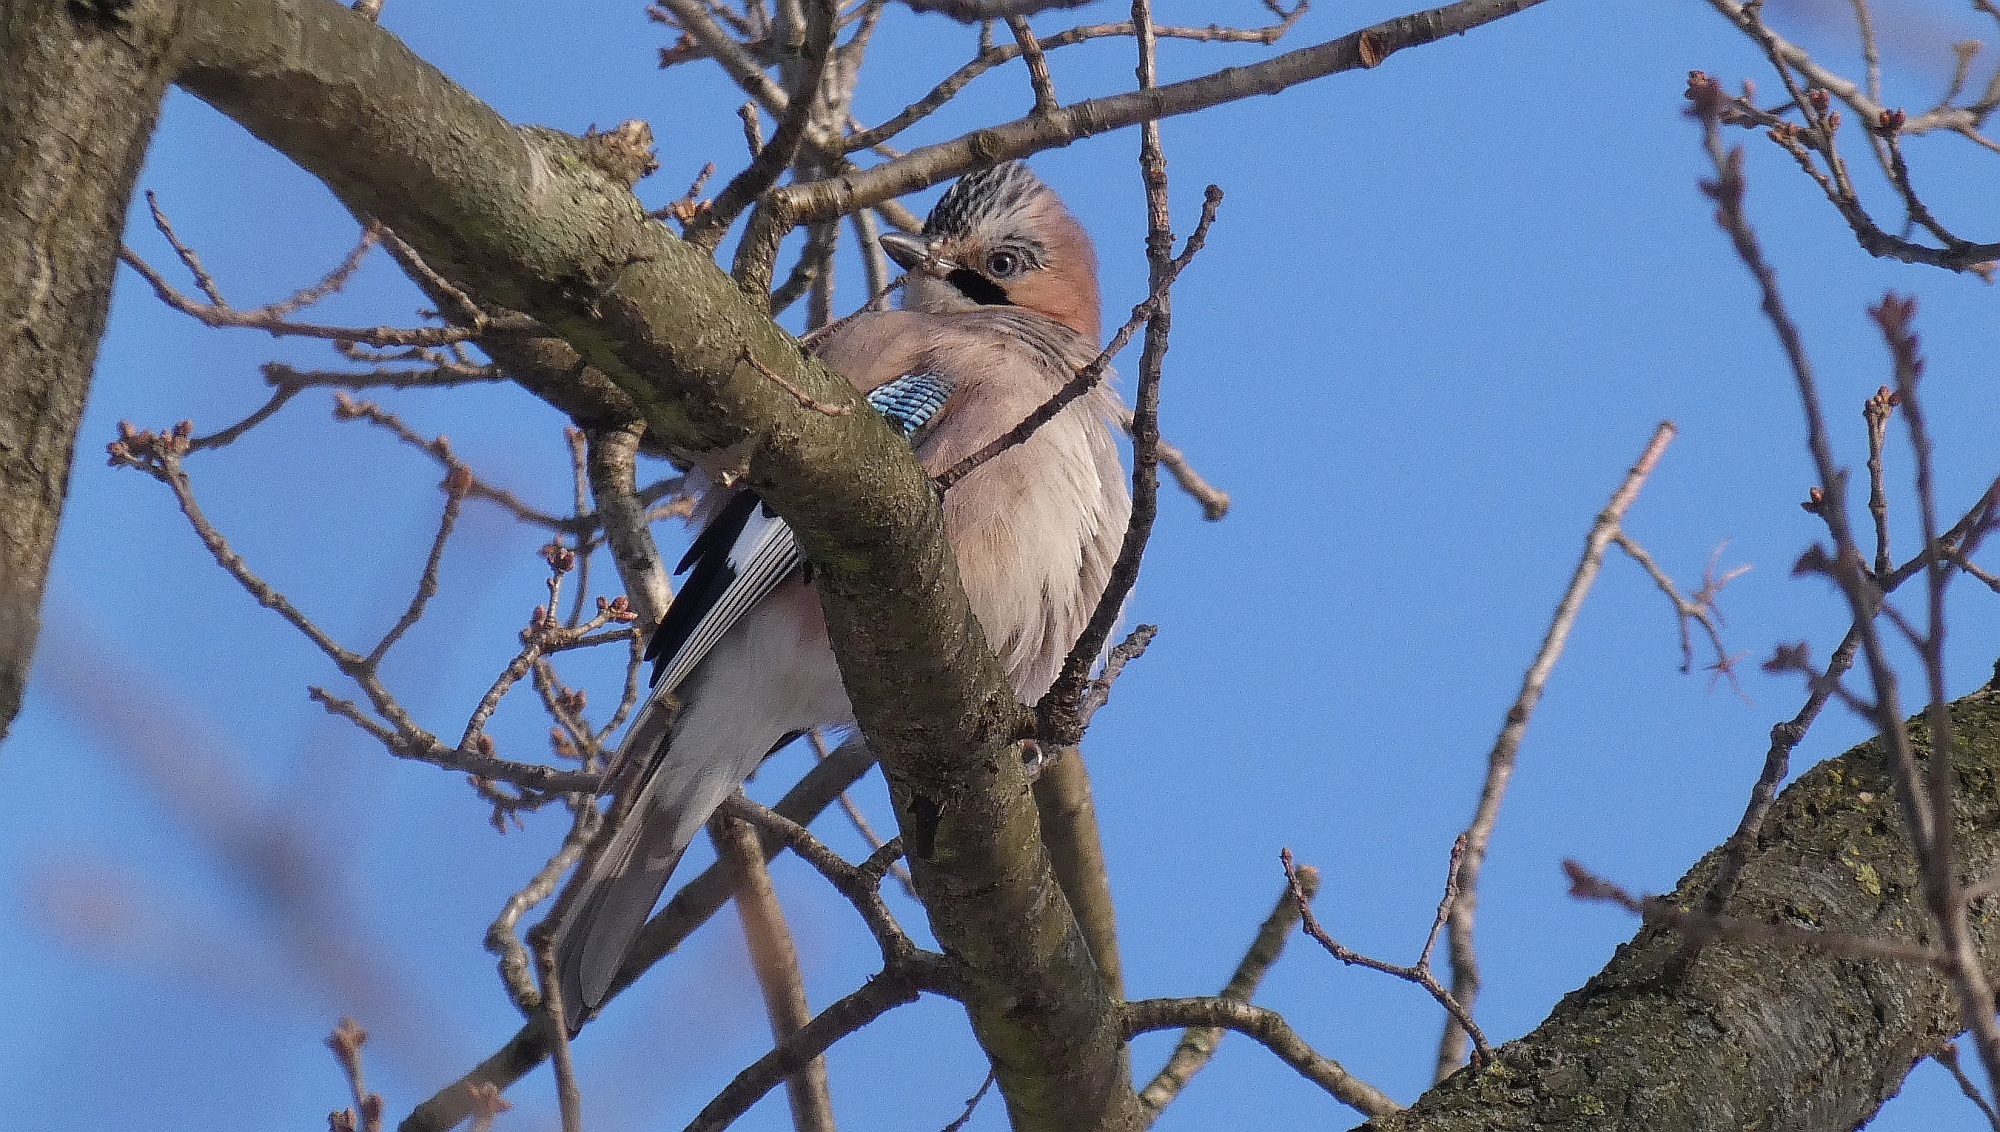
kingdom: Animalia
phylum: Chordata
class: Aves
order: Passeriformes
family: Corvidae
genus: Garrulus
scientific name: Garrulus glandarius
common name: Eurasian jay
